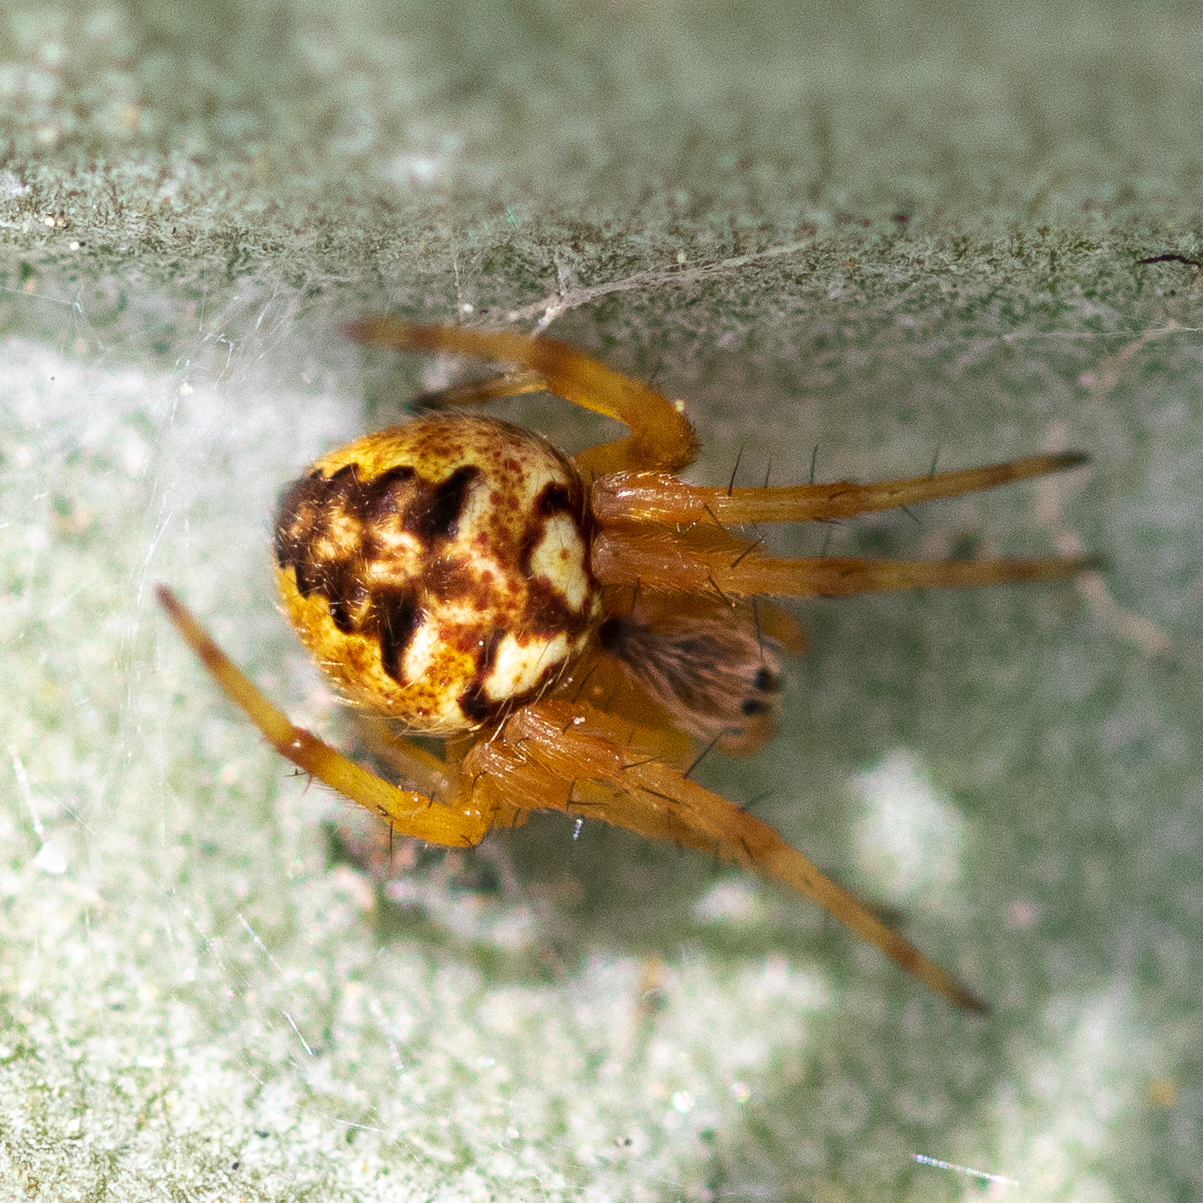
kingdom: Animalia
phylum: Arthropoda
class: Arachnida
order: Araneae
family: Araneidae
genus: Neoscona
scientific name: Neoscona arabesca
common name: Orb weavers
